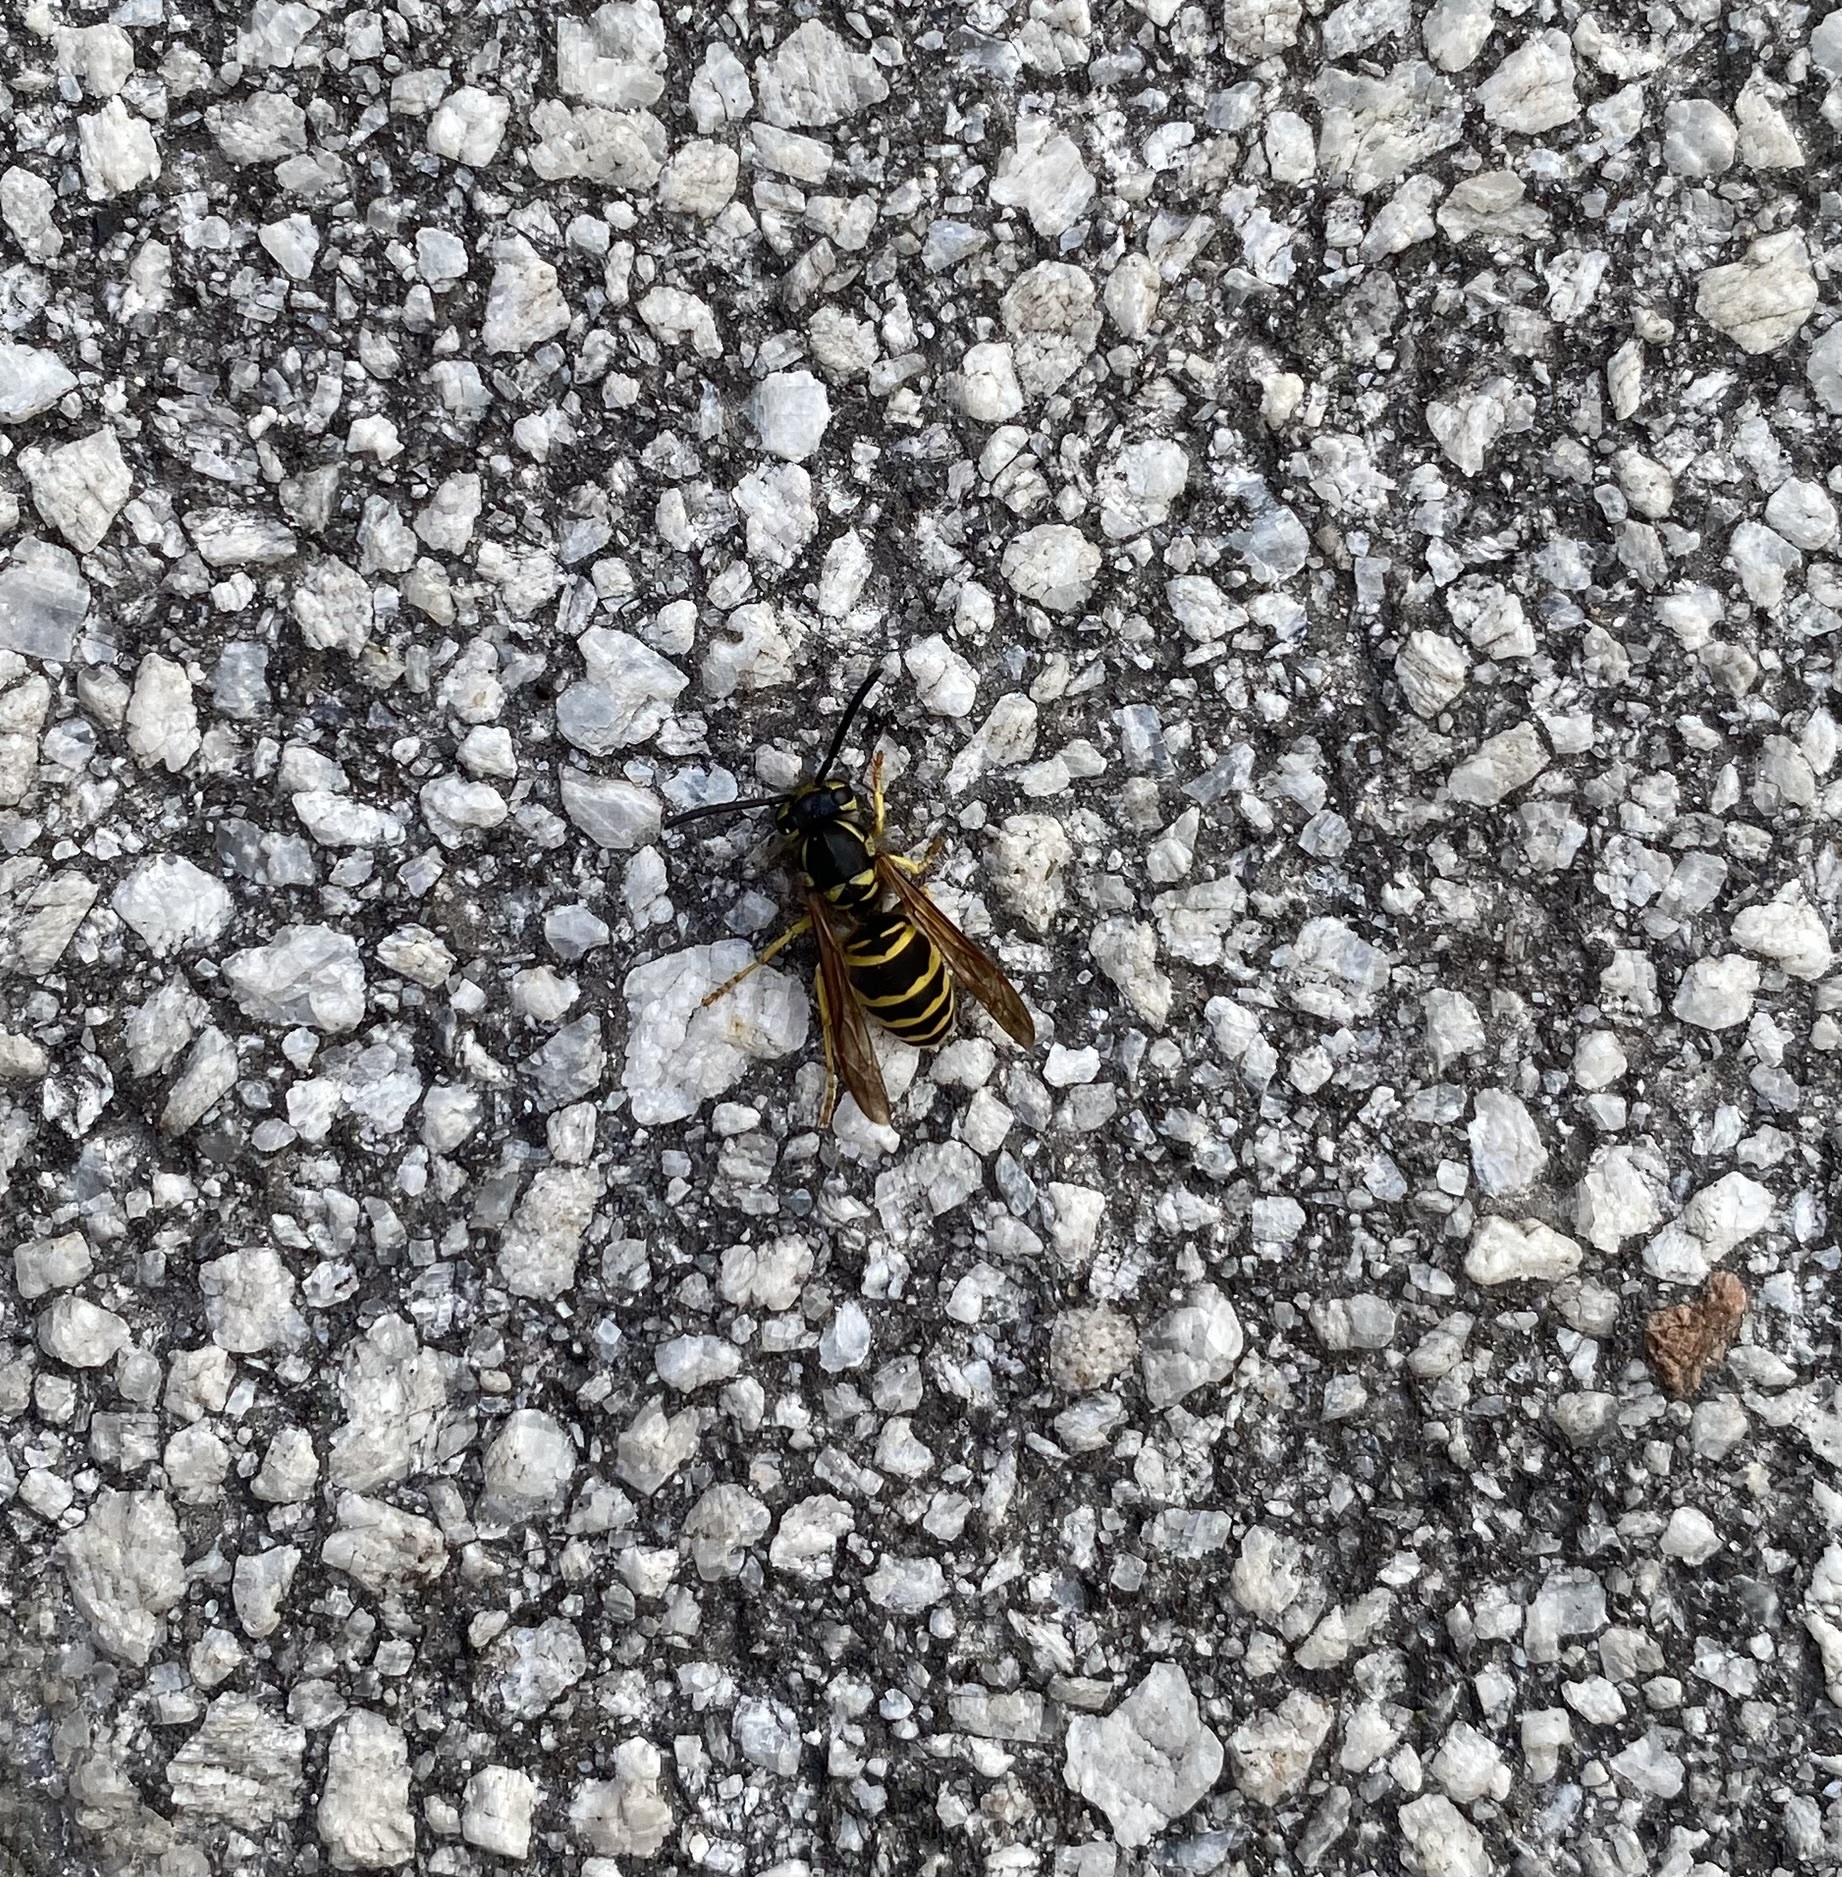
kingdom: Animalia
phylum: Arthropoda
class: Insecta
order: Hymenoptera
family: Vespidae
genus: Vespula
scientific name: Vespula maculifrons
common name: Eastern yellowjacket
